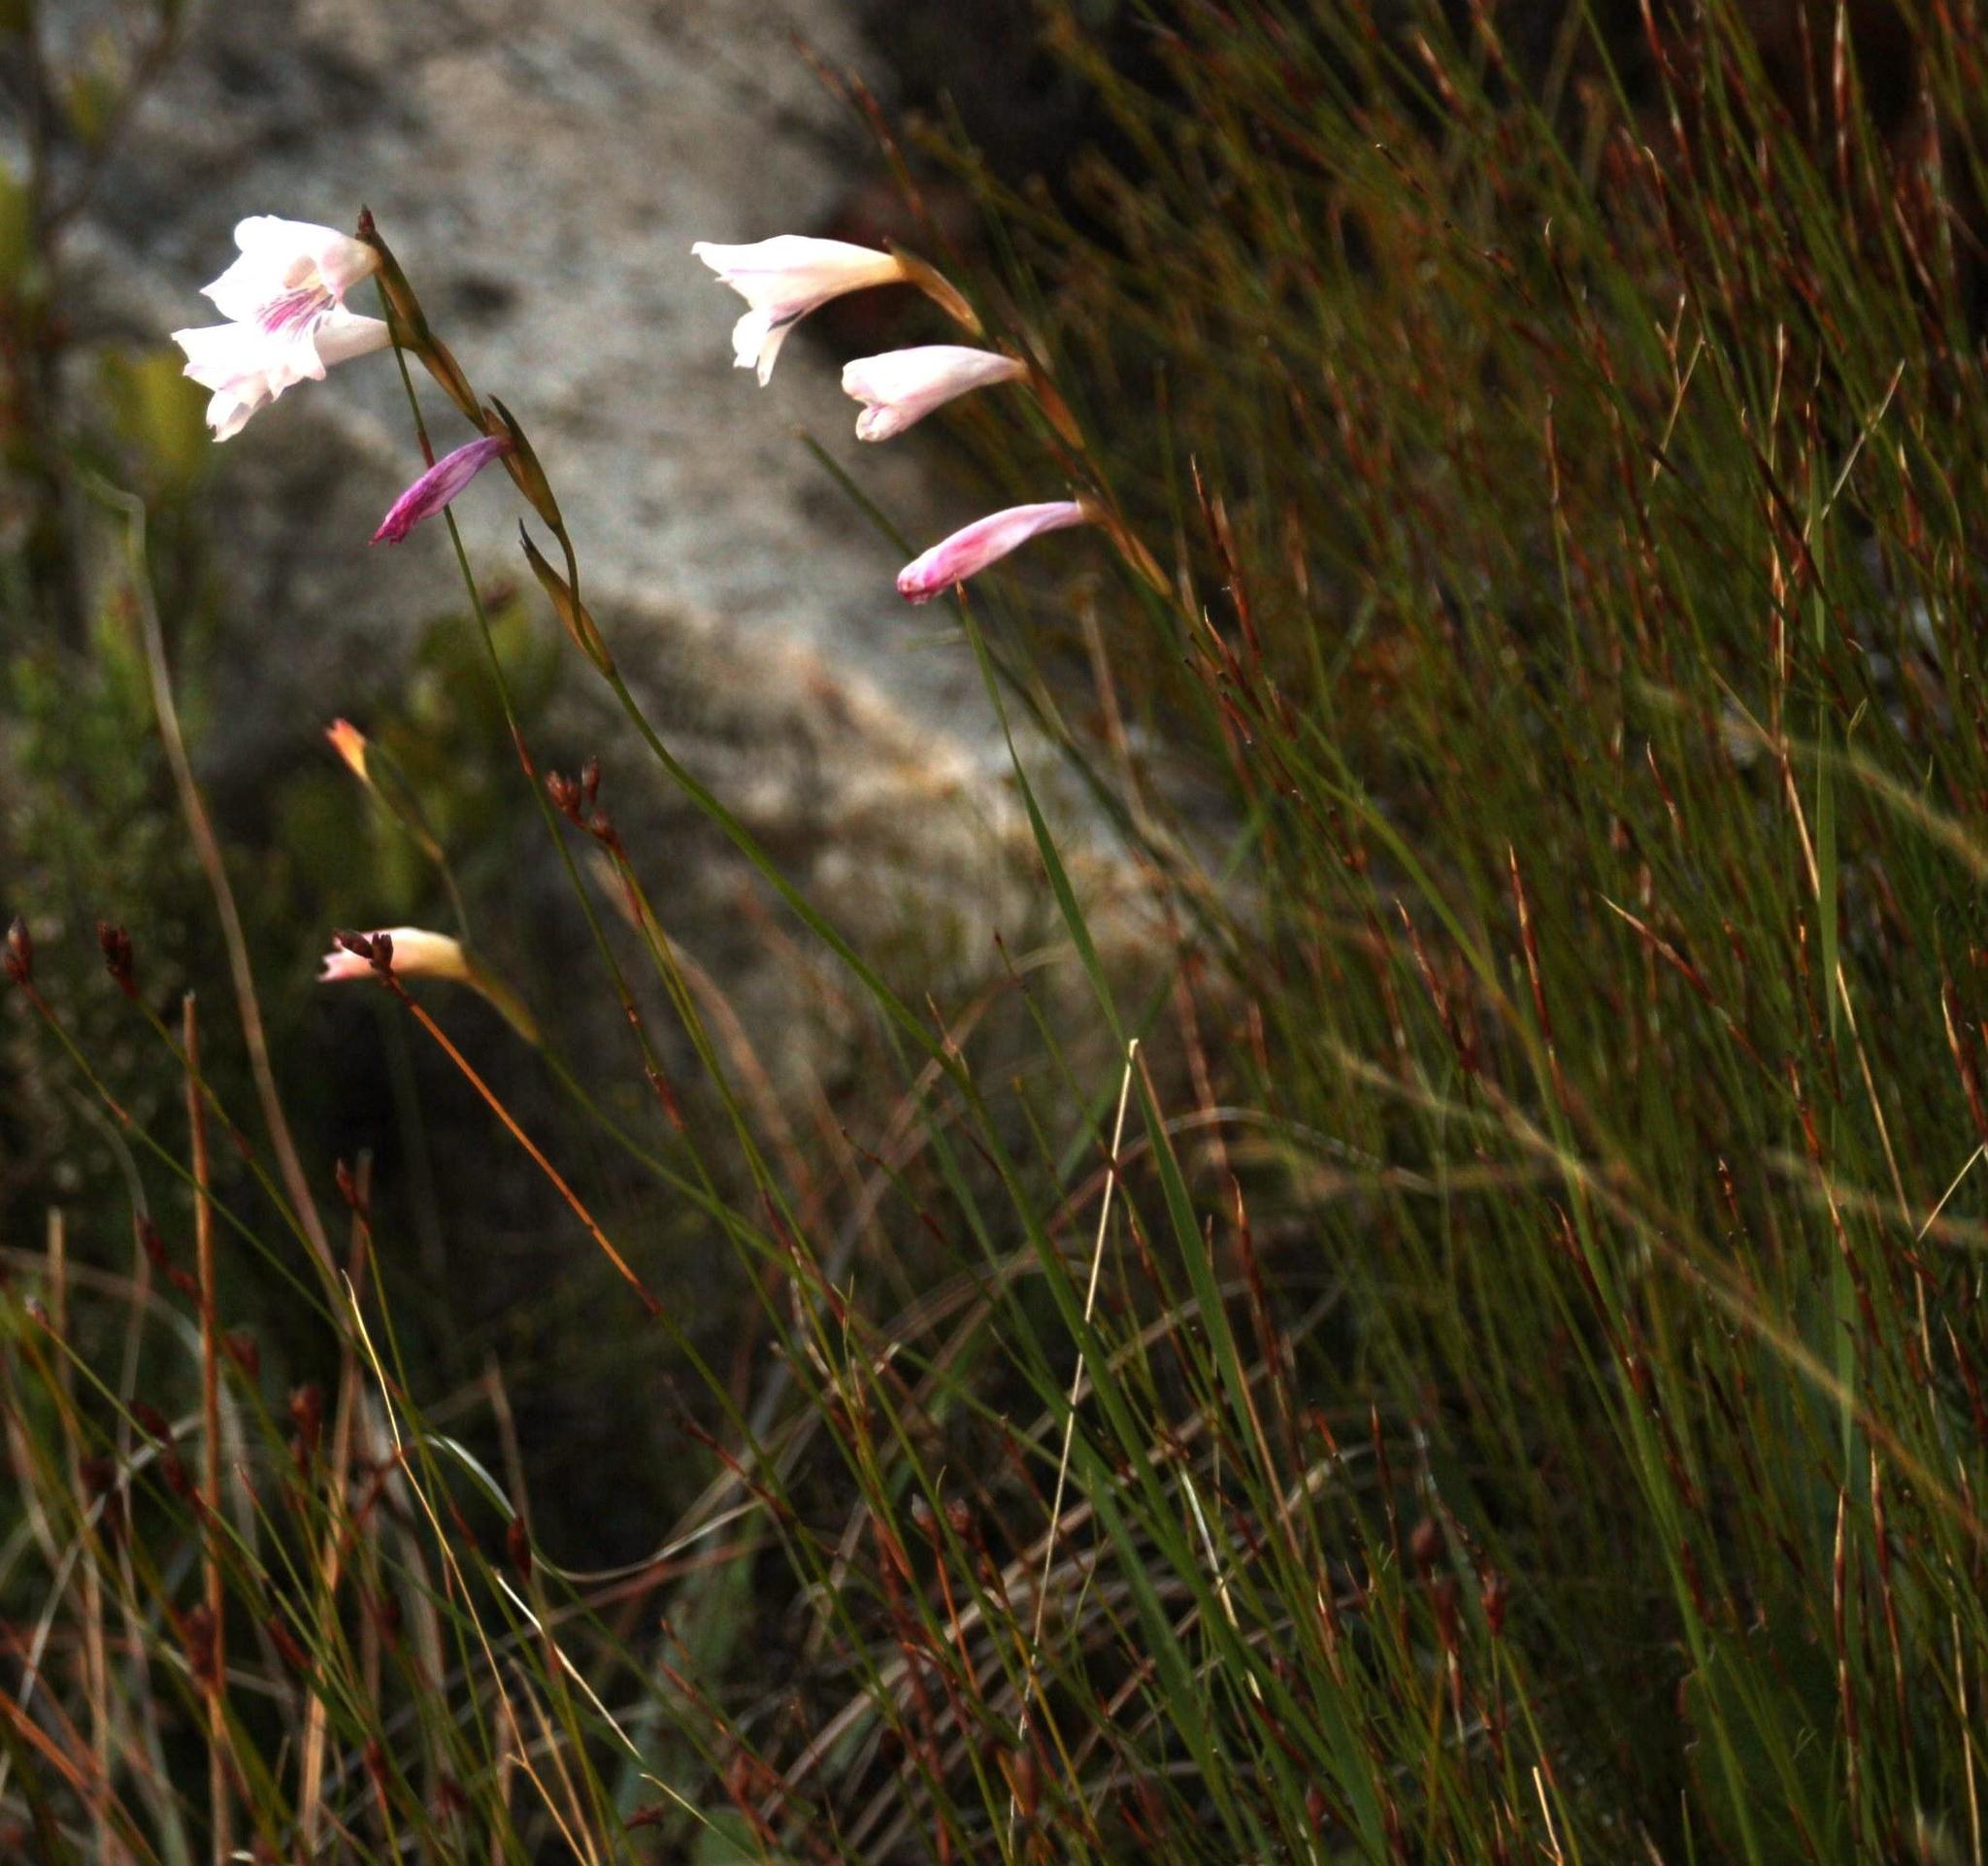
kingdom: Plantae
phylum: Tracheophyta
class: Liliopsida
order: Asparagales
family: Iridaceae
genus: Gladiolus
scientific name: Gladiolus hirsutus
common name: Small pink afrikaner
